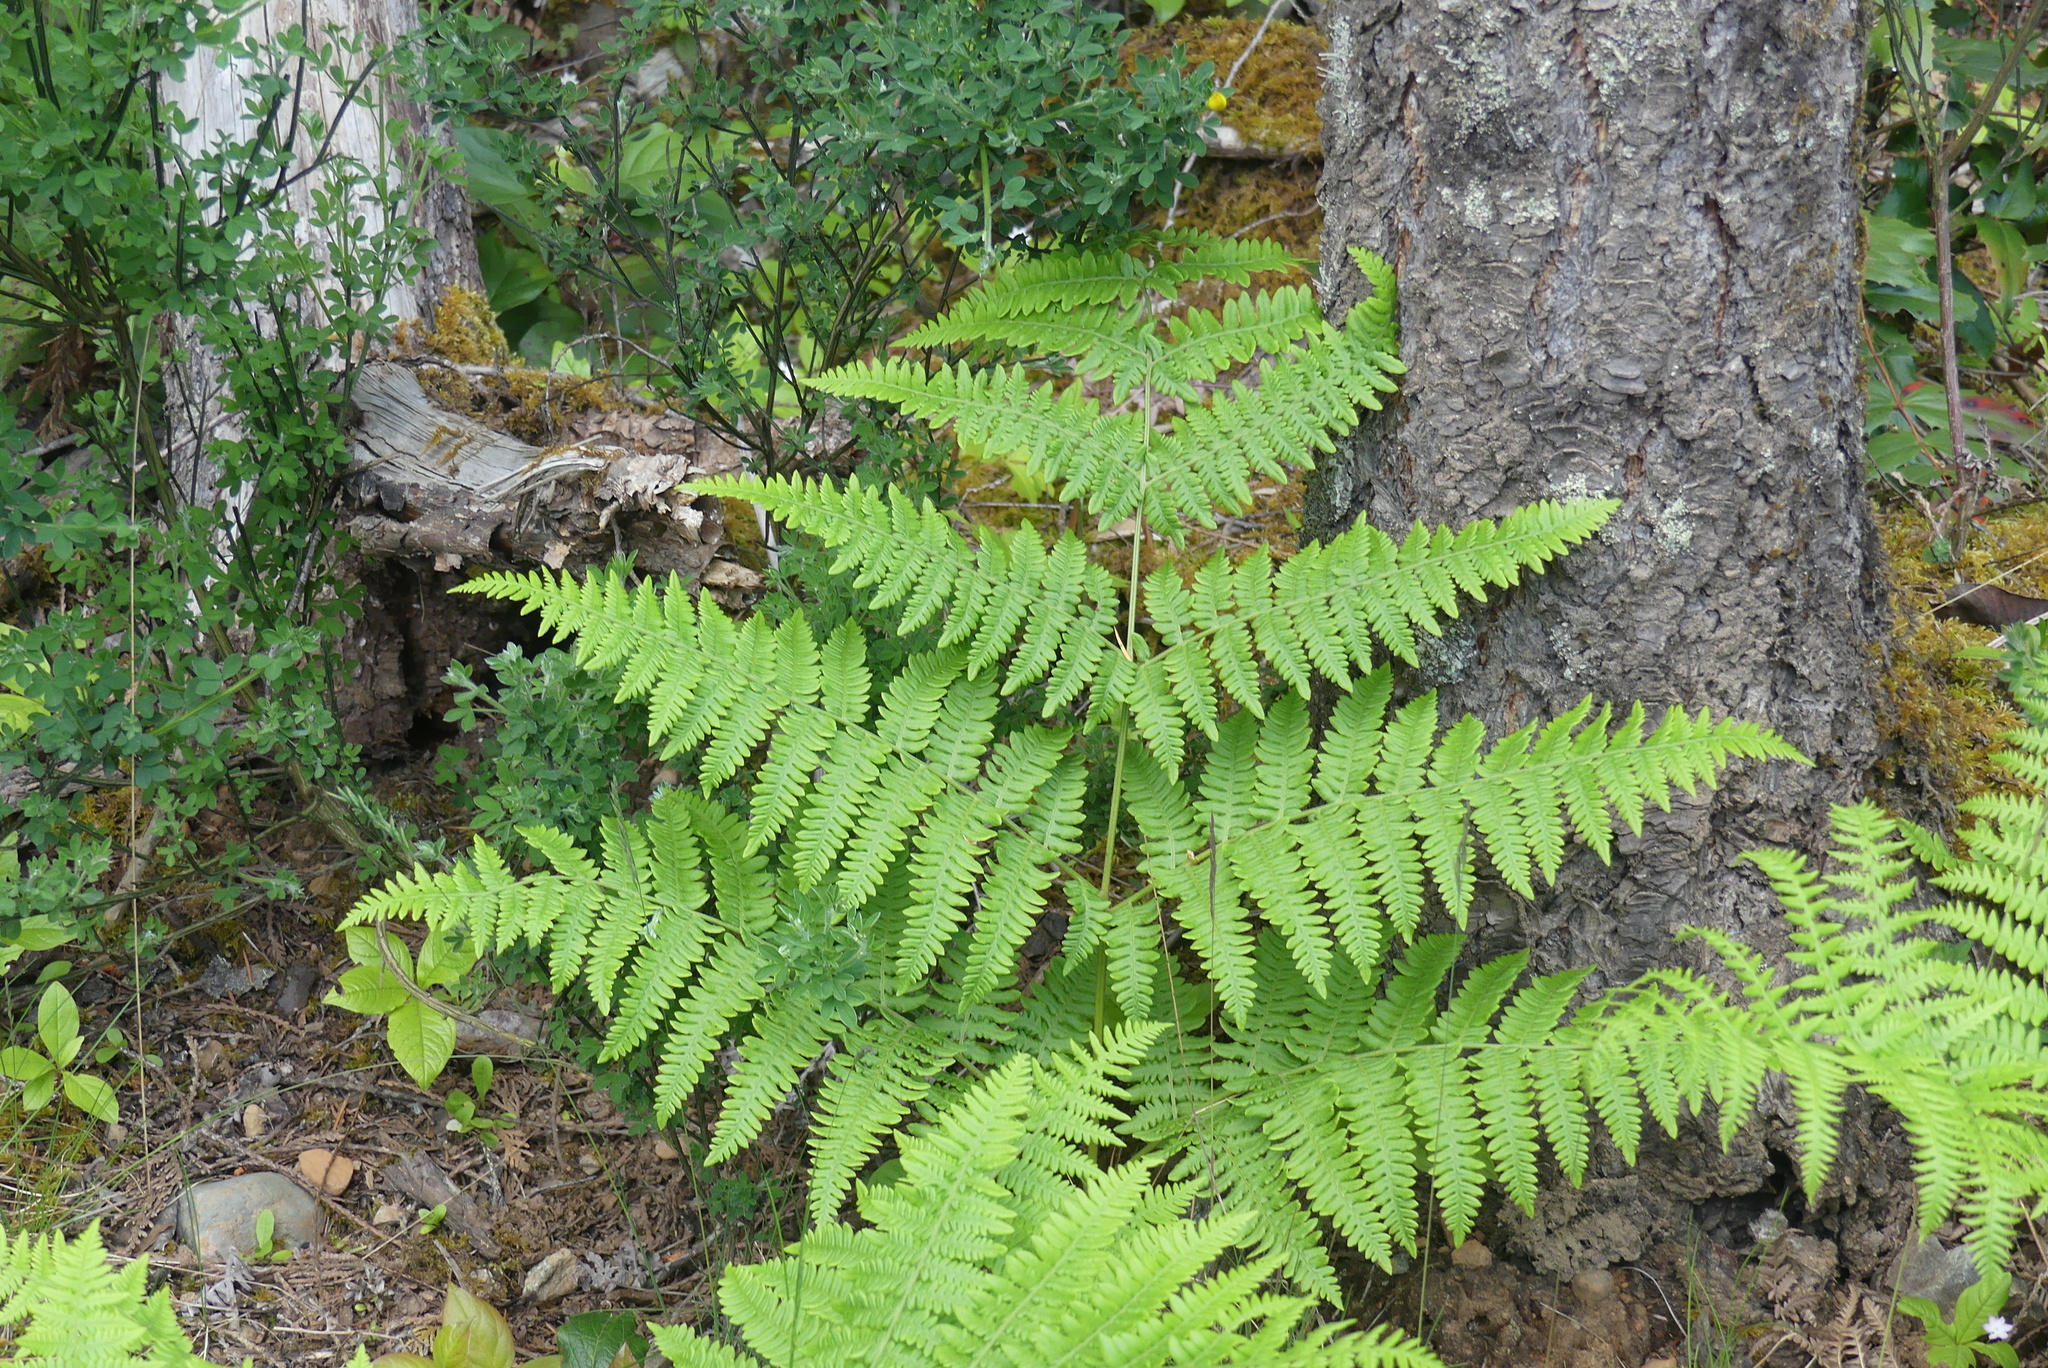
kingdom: Plantae
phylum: Tracheophyta
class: Polypodiopsida
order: Polypodiales
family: Dennstaedtiaceae
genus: Pteridium
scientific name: Pteridium aquilinum
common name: Bracken
